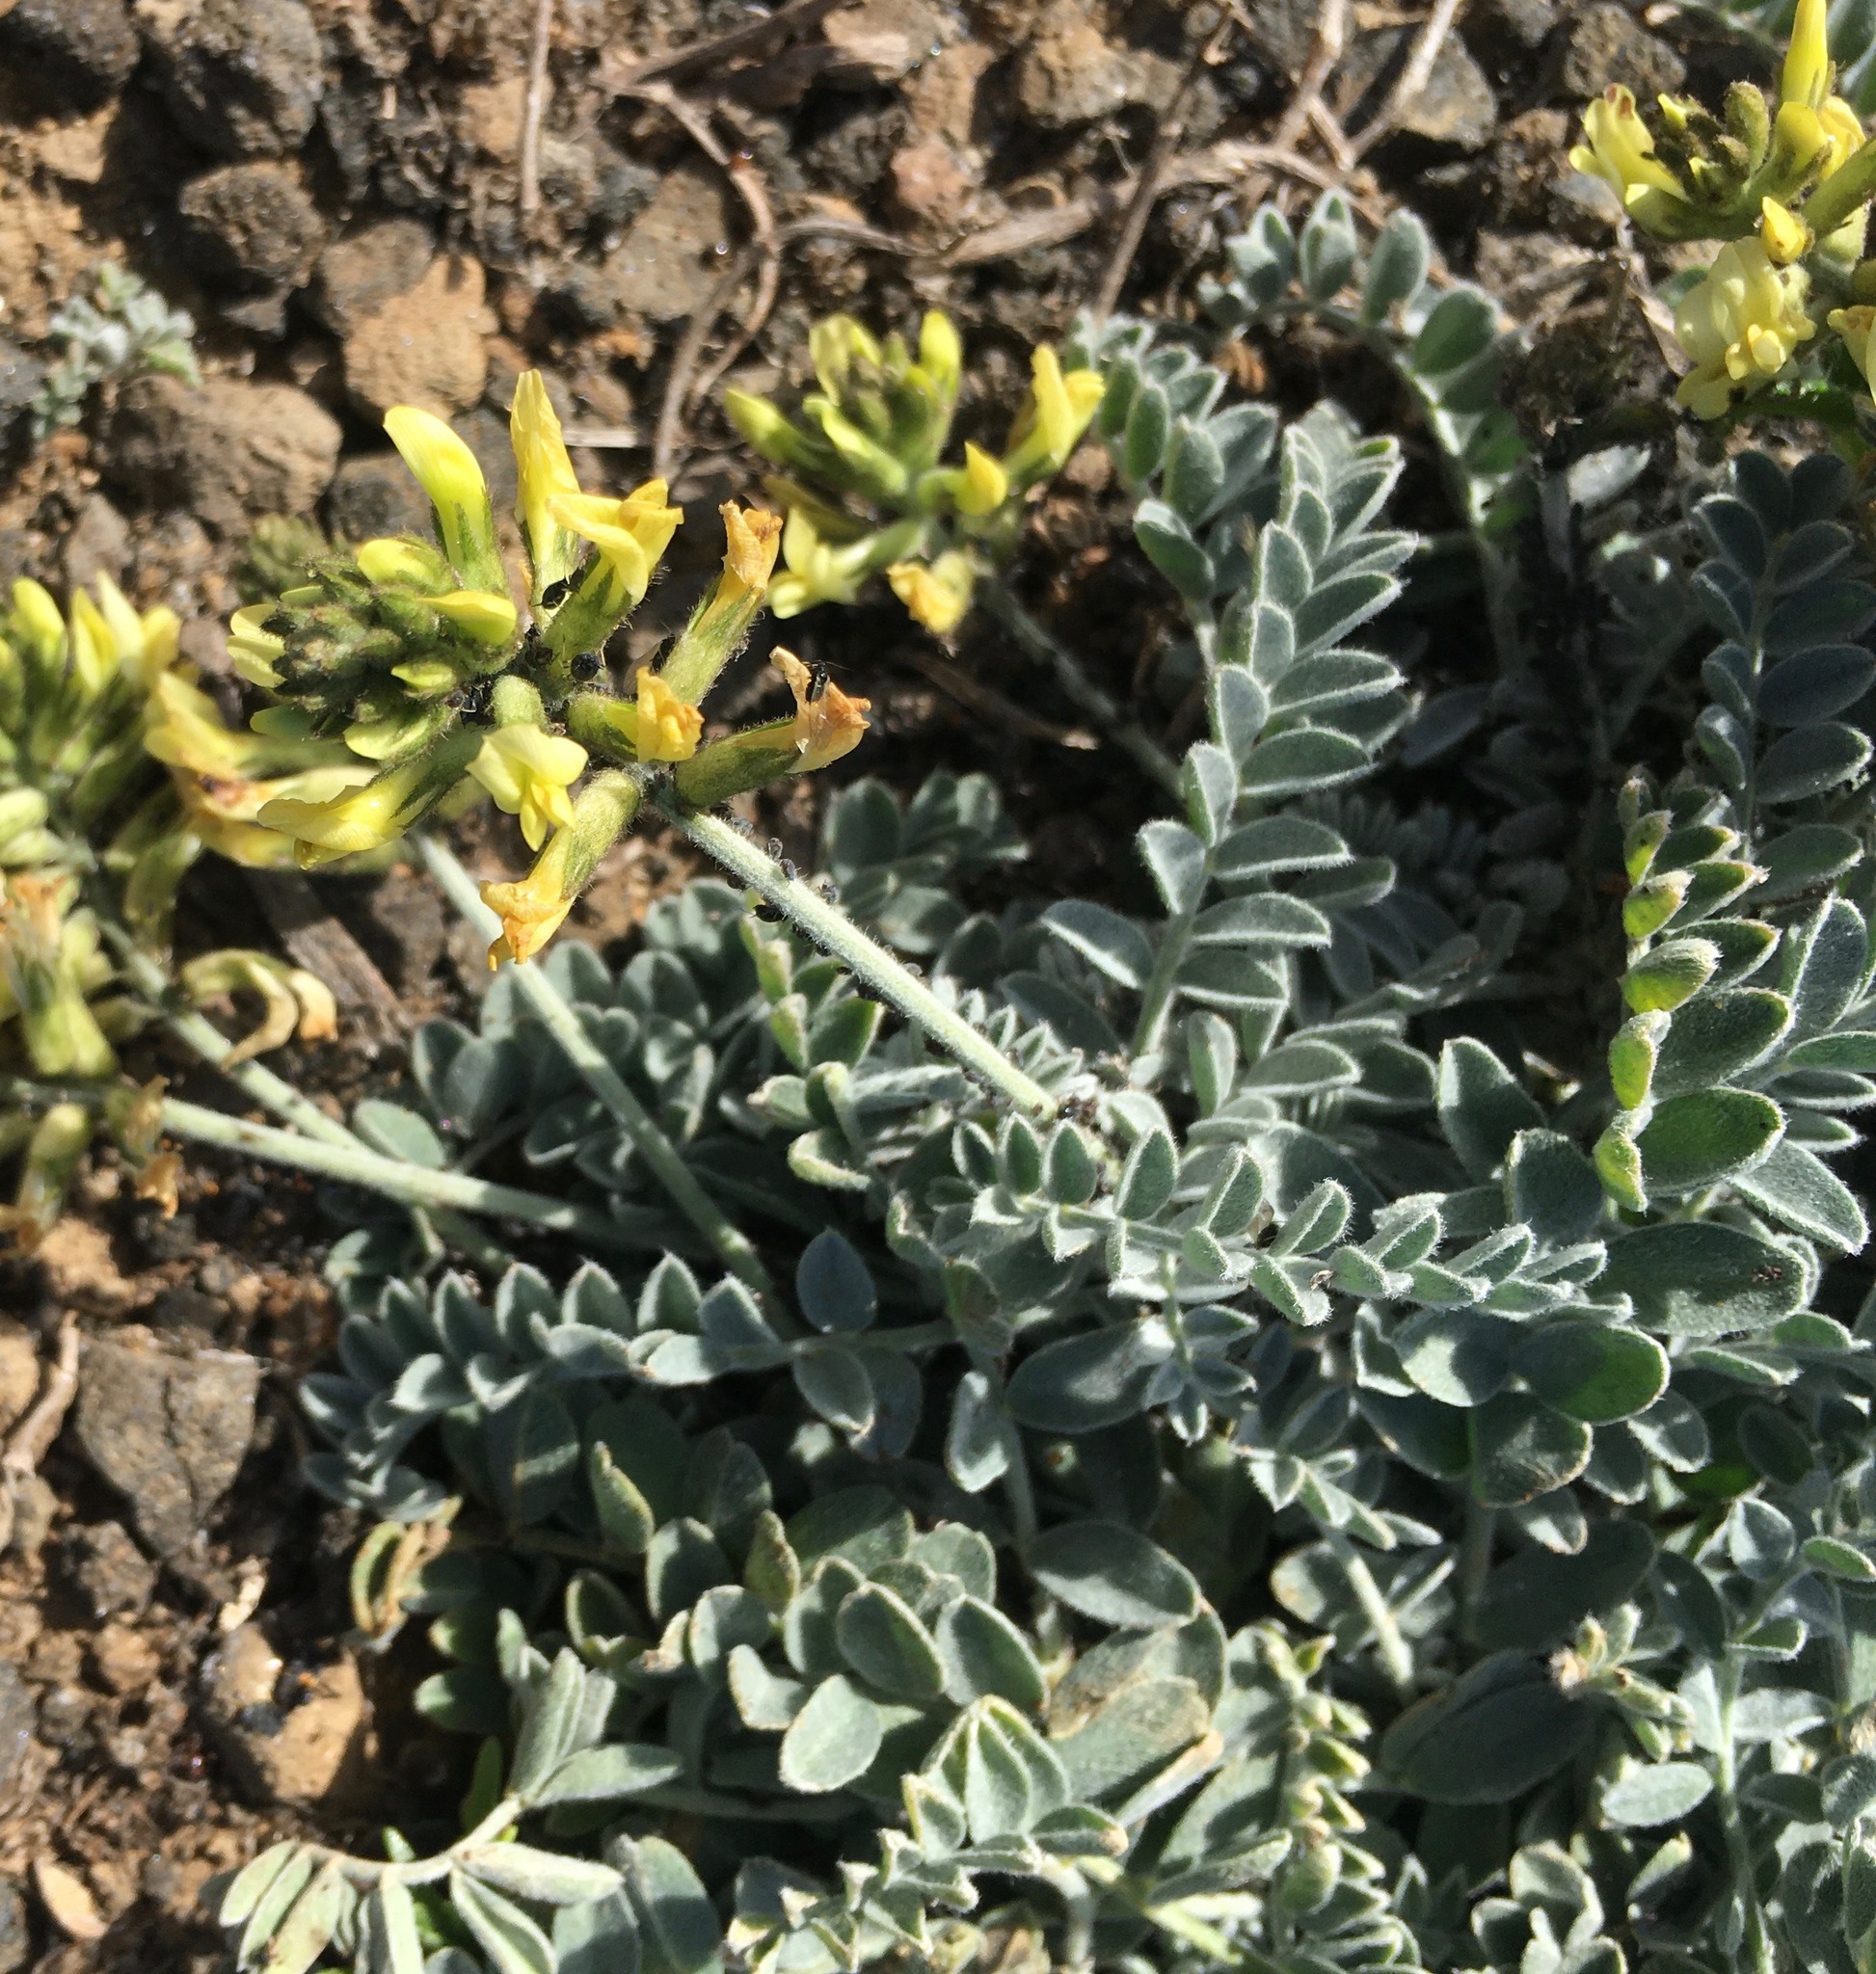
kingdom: Plantae
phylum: Tracheophyta
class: Magnoliopsida
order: Fabales
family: Fabaceae
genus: Astragalus
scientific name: Astragalus traskiae
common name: Trask's milk-vetch
